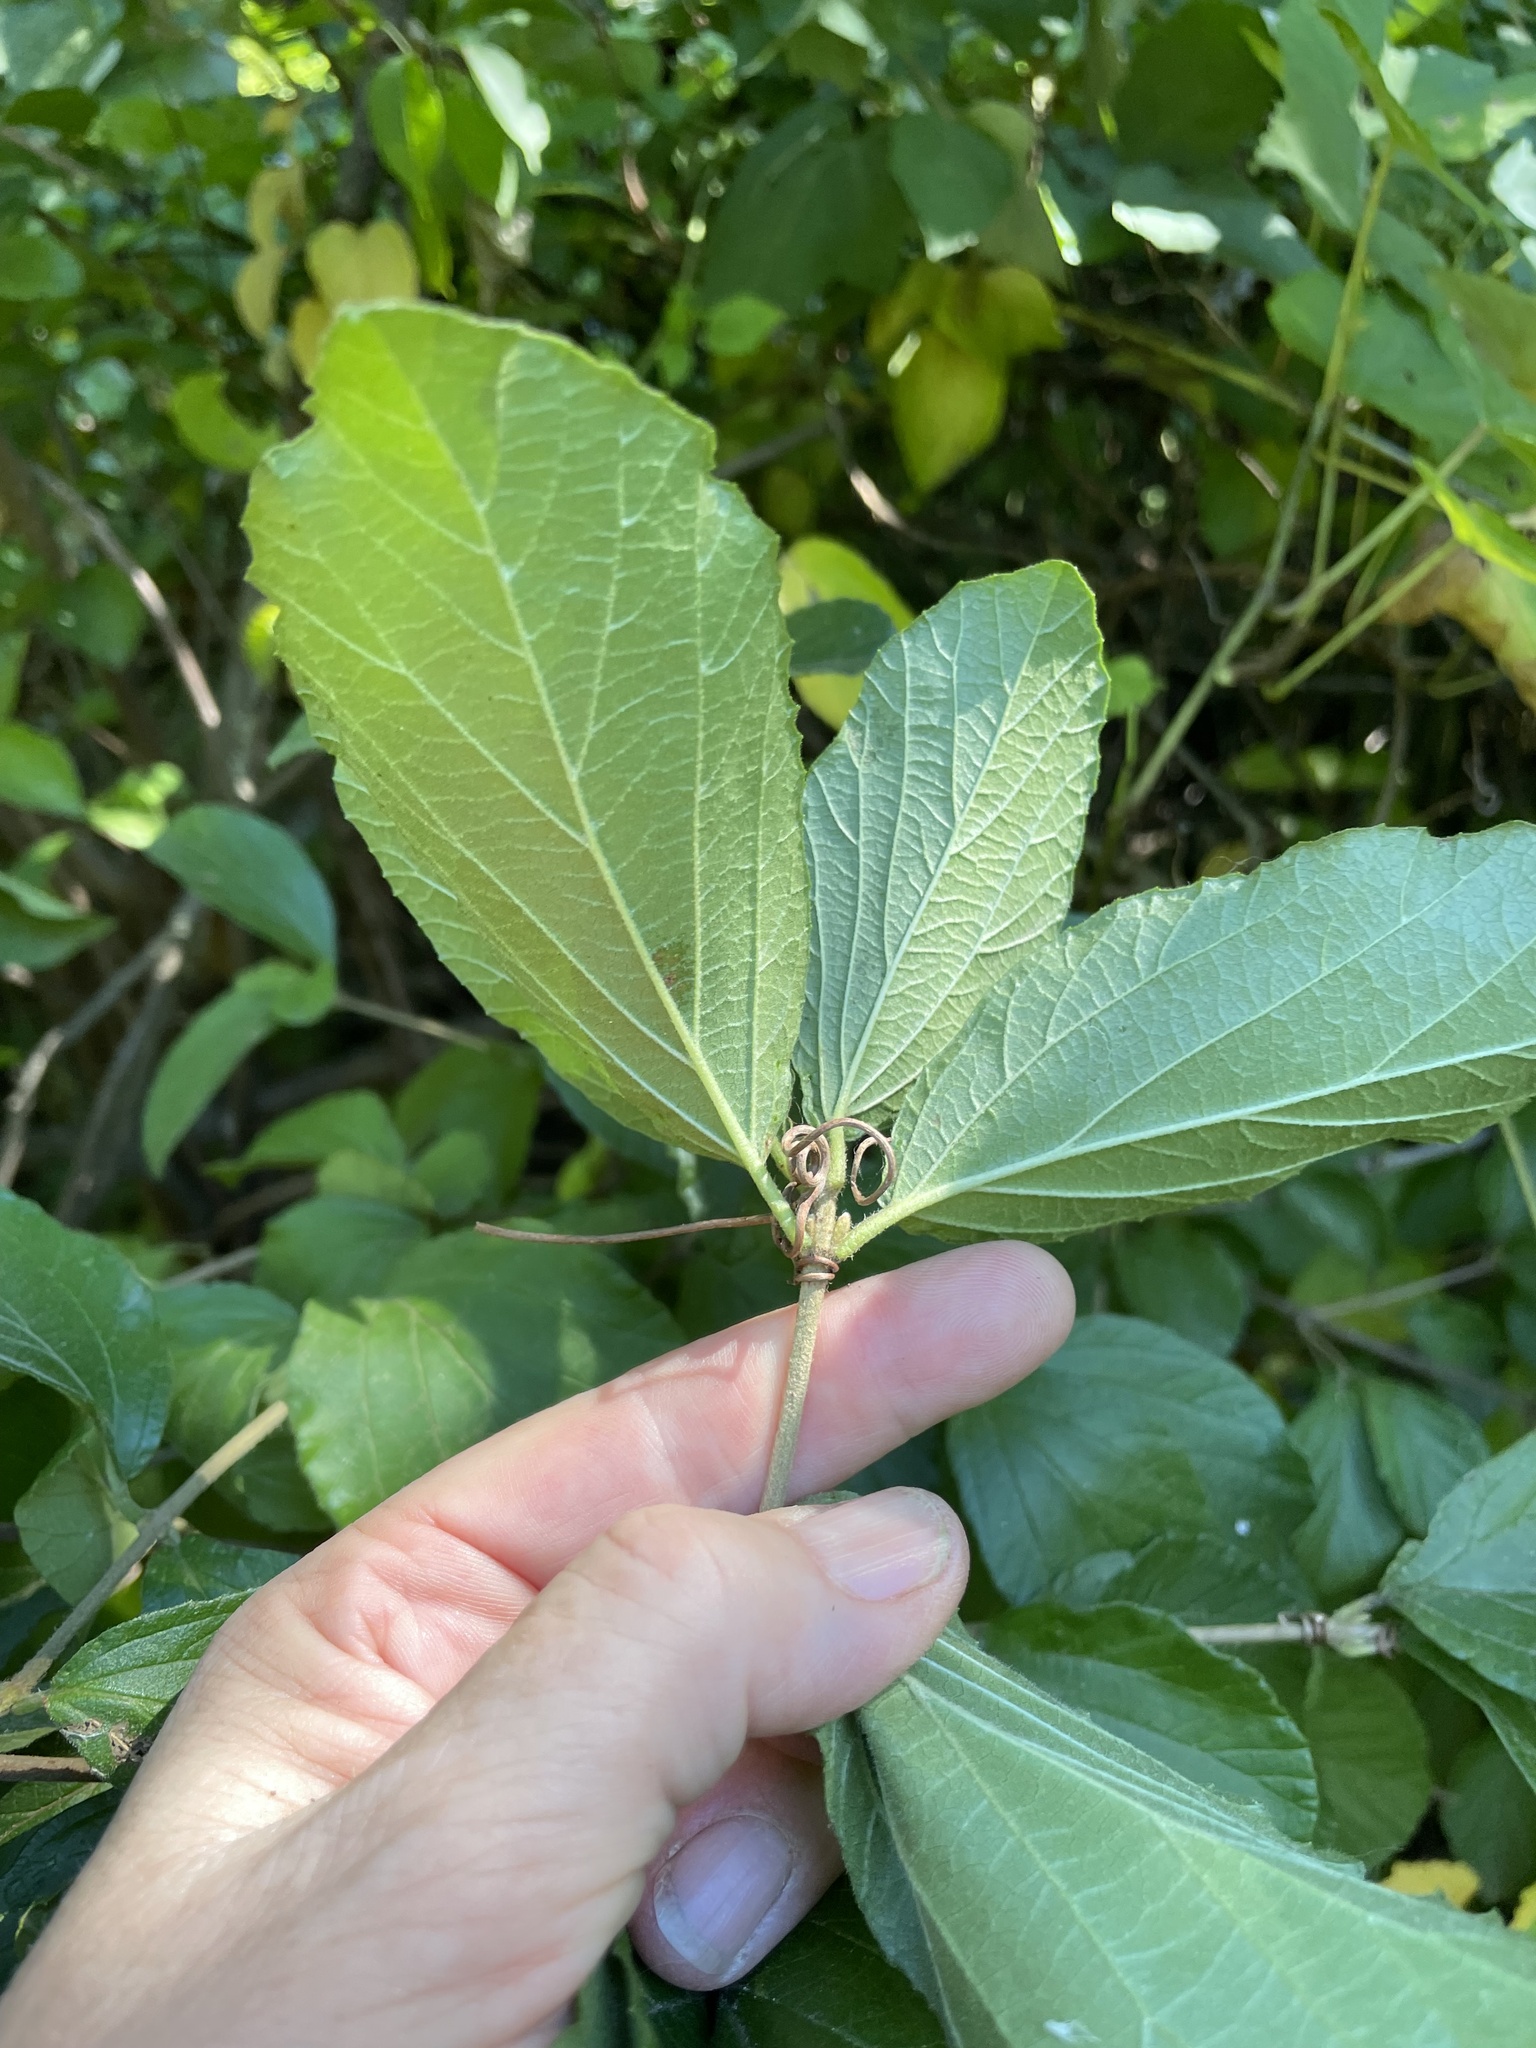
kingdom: Plantae
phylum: Tracheophyta
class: Magnoliopsida
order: Dipsacales
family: Viburnaceae
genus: Viburnum
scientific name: Viburnum dilatatum
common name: Linden arrowwood
